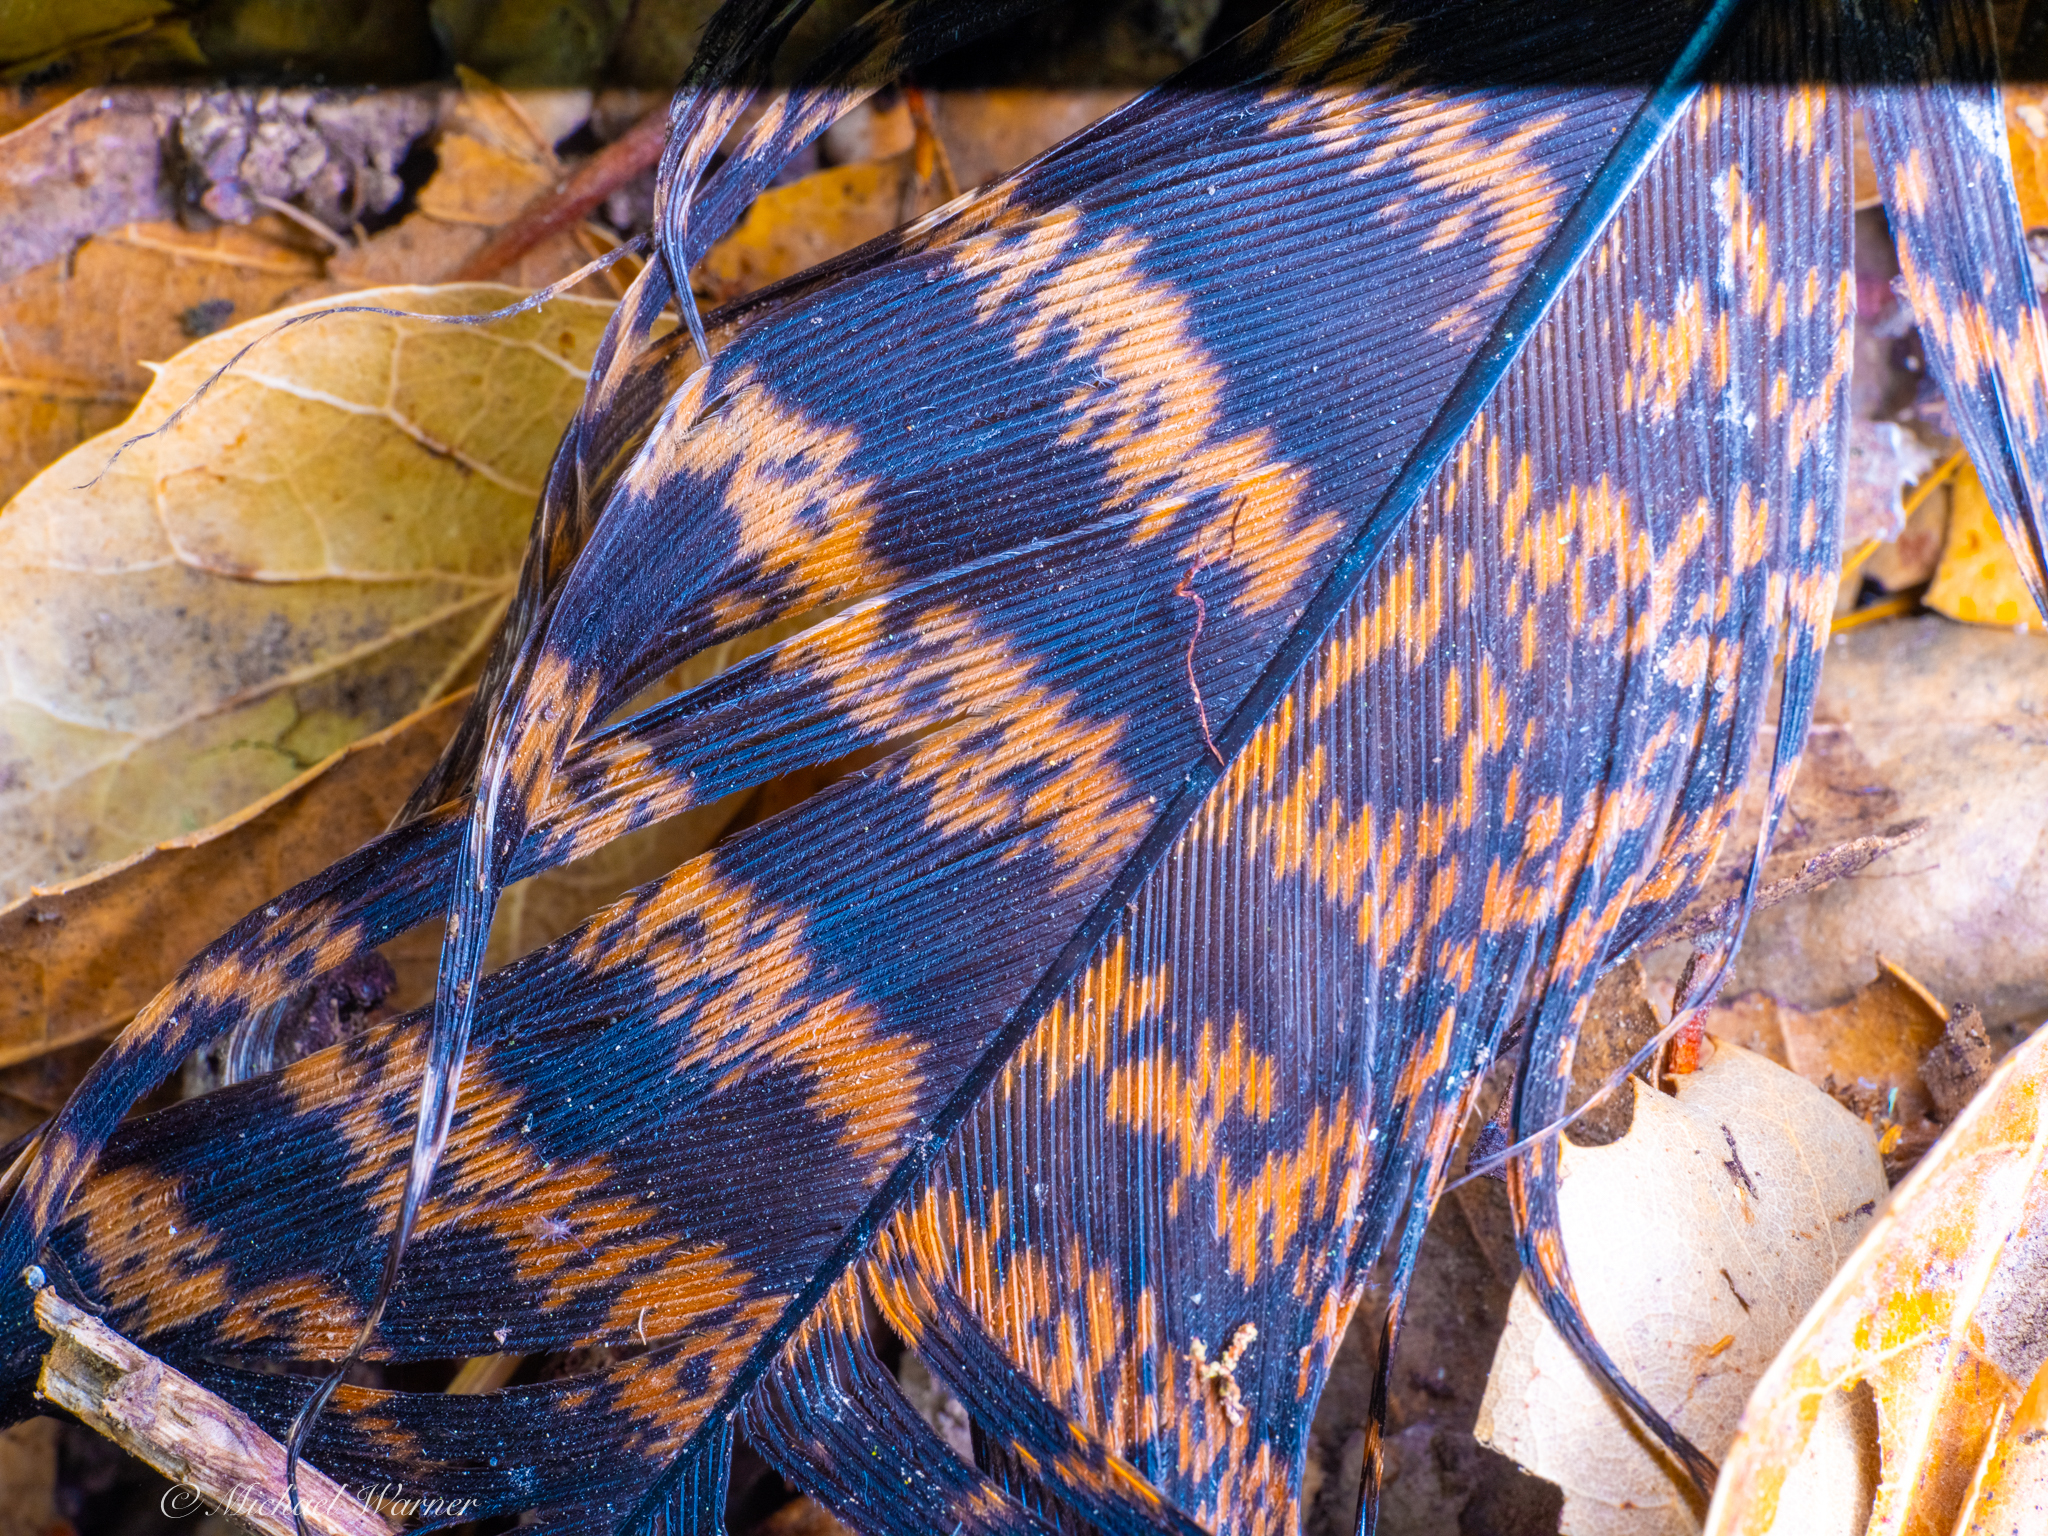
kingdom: Animalia
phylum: Chordata
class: Aves
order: Galliformes
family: Phasianidae
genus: Meleagris
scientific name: Meleagris gallopavo
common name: Wild turkey
